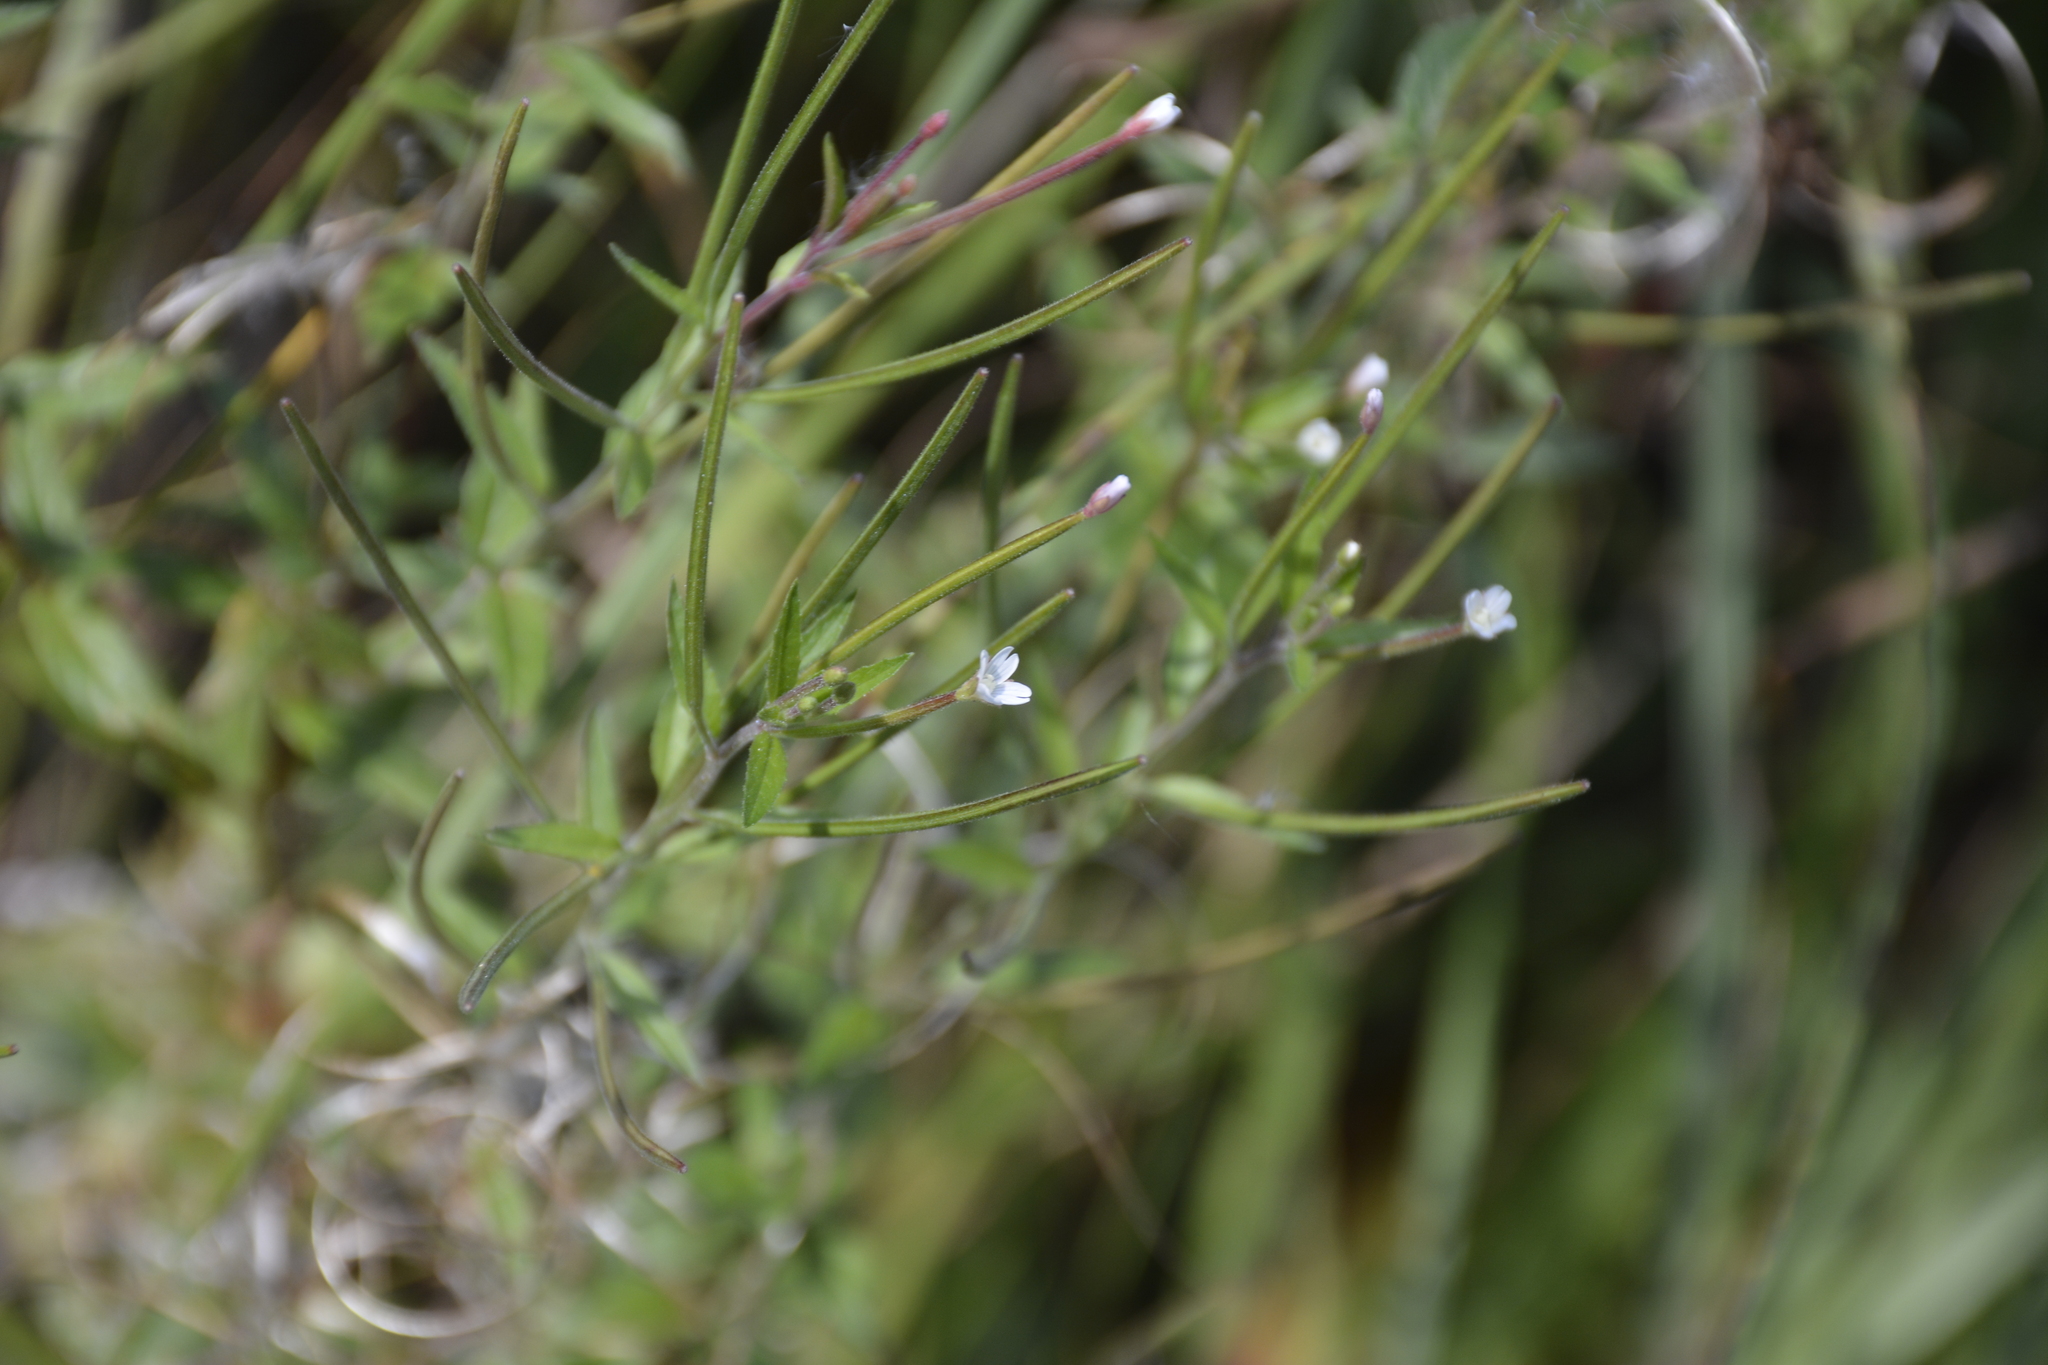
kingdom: Plantae
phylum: Tracheophyta
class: Magnoliopsida
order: Myrtales
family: Onagraceae
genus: Epilobium
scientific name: Epilobium pseudorubescens
